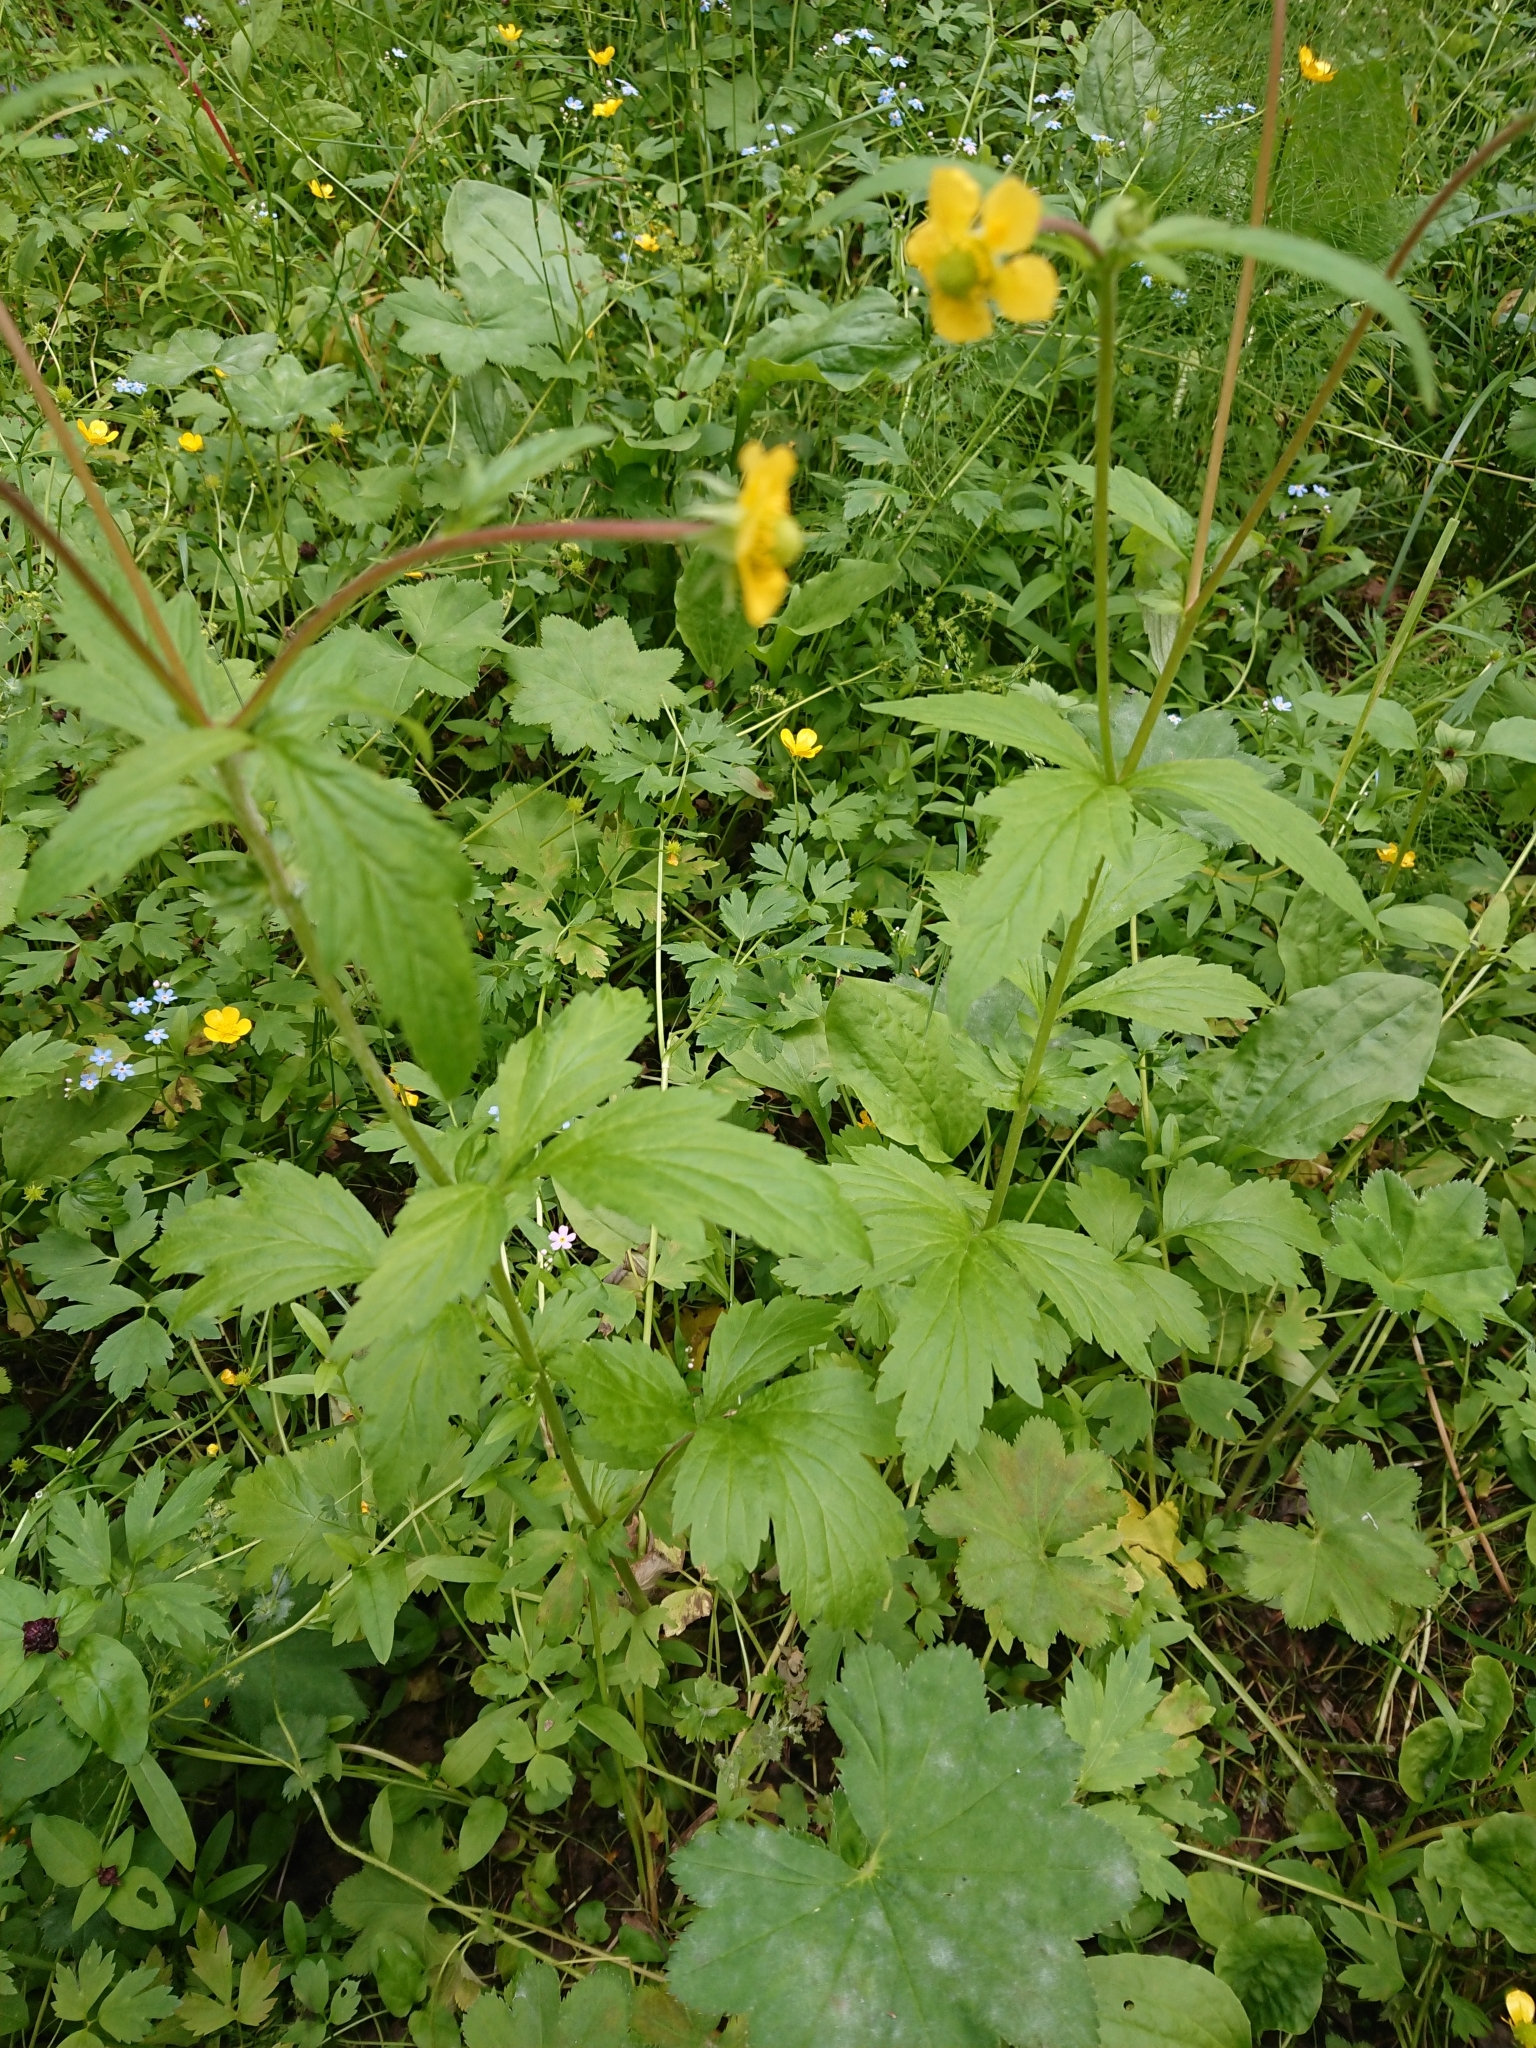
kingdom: Plantae
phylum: Tracheophyta
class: Magnoliopsida
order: Rosales
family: Rosaceae
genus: Geum
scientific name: Geum aleppicum
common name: Yellow avens
